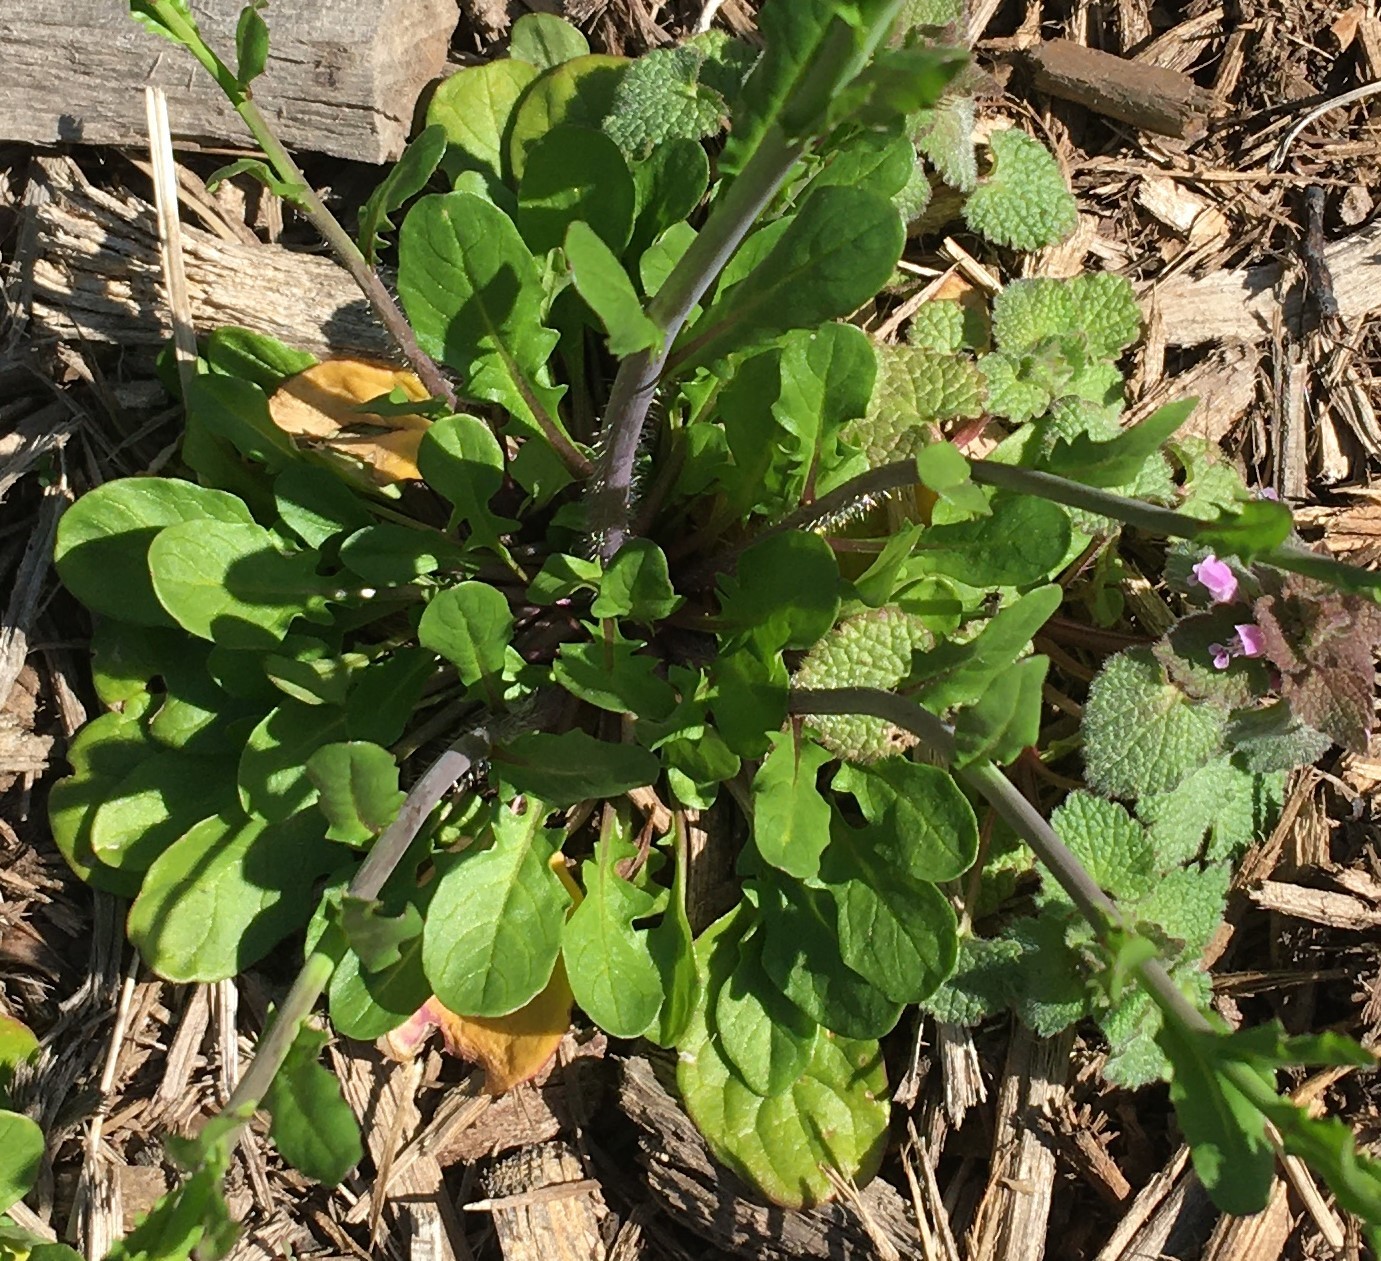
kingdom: Plantae
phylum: Tracheophyta
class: Magnoliopsida
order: Brassicales
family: Brassicaceae
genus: Mummenhoffia
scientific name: Mummenhoffia alliacea
